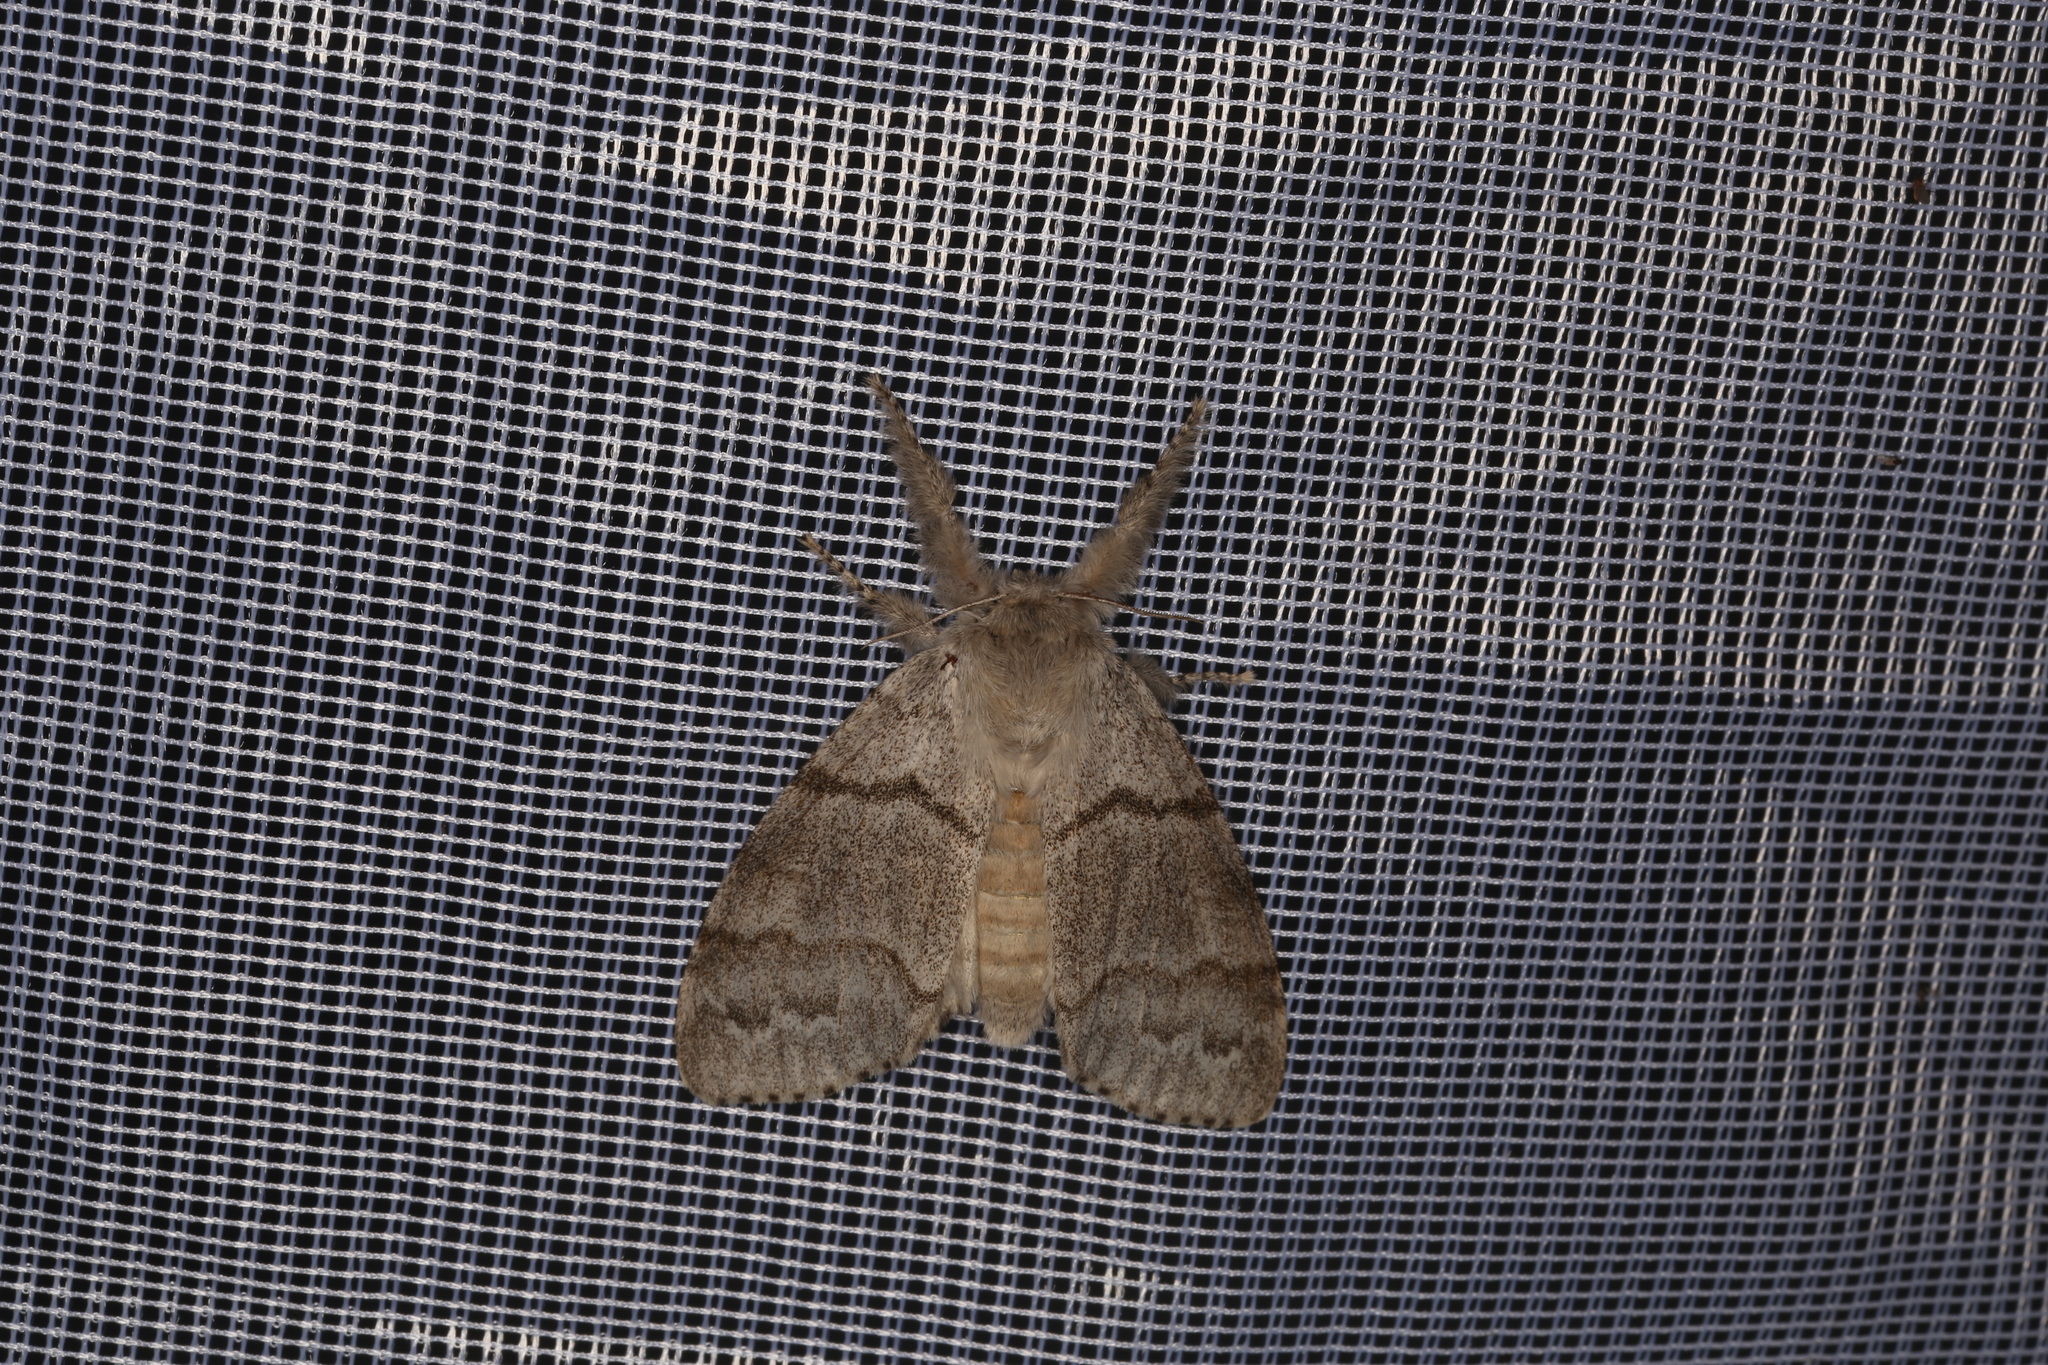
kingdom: Animalia
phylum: Arthropoda
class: Insecta
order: Lepidoptera
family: Erebidae
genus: Calliteara
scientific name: Calliteara pudibunda
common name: Pale tussock
